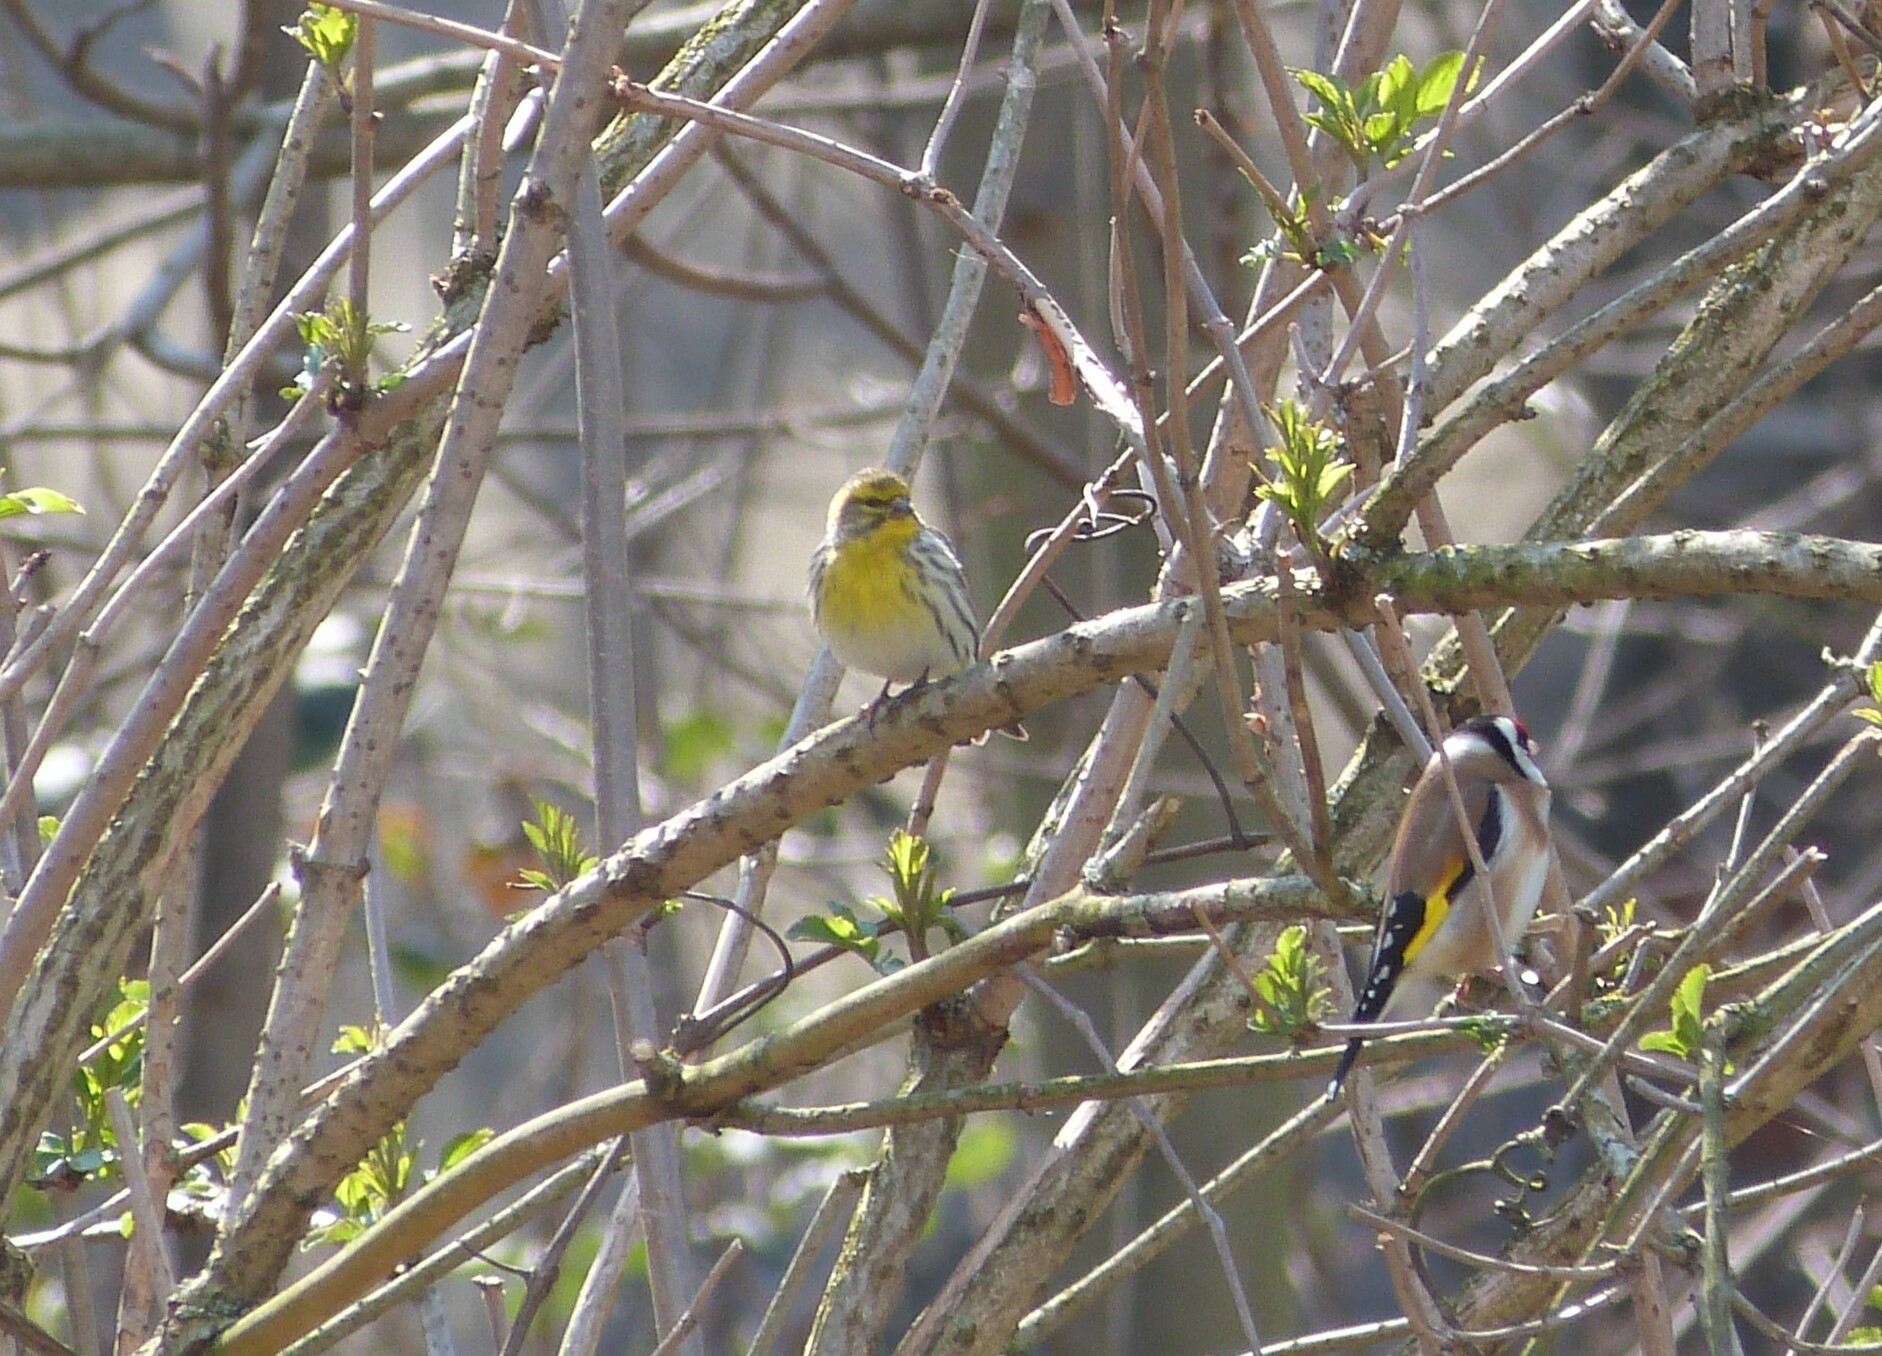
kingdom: Animalia
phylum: Chordata
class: Aves
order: Passeriformes
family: Fringillidae
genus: Serinus
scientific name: Serinus serinus
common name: European serin
